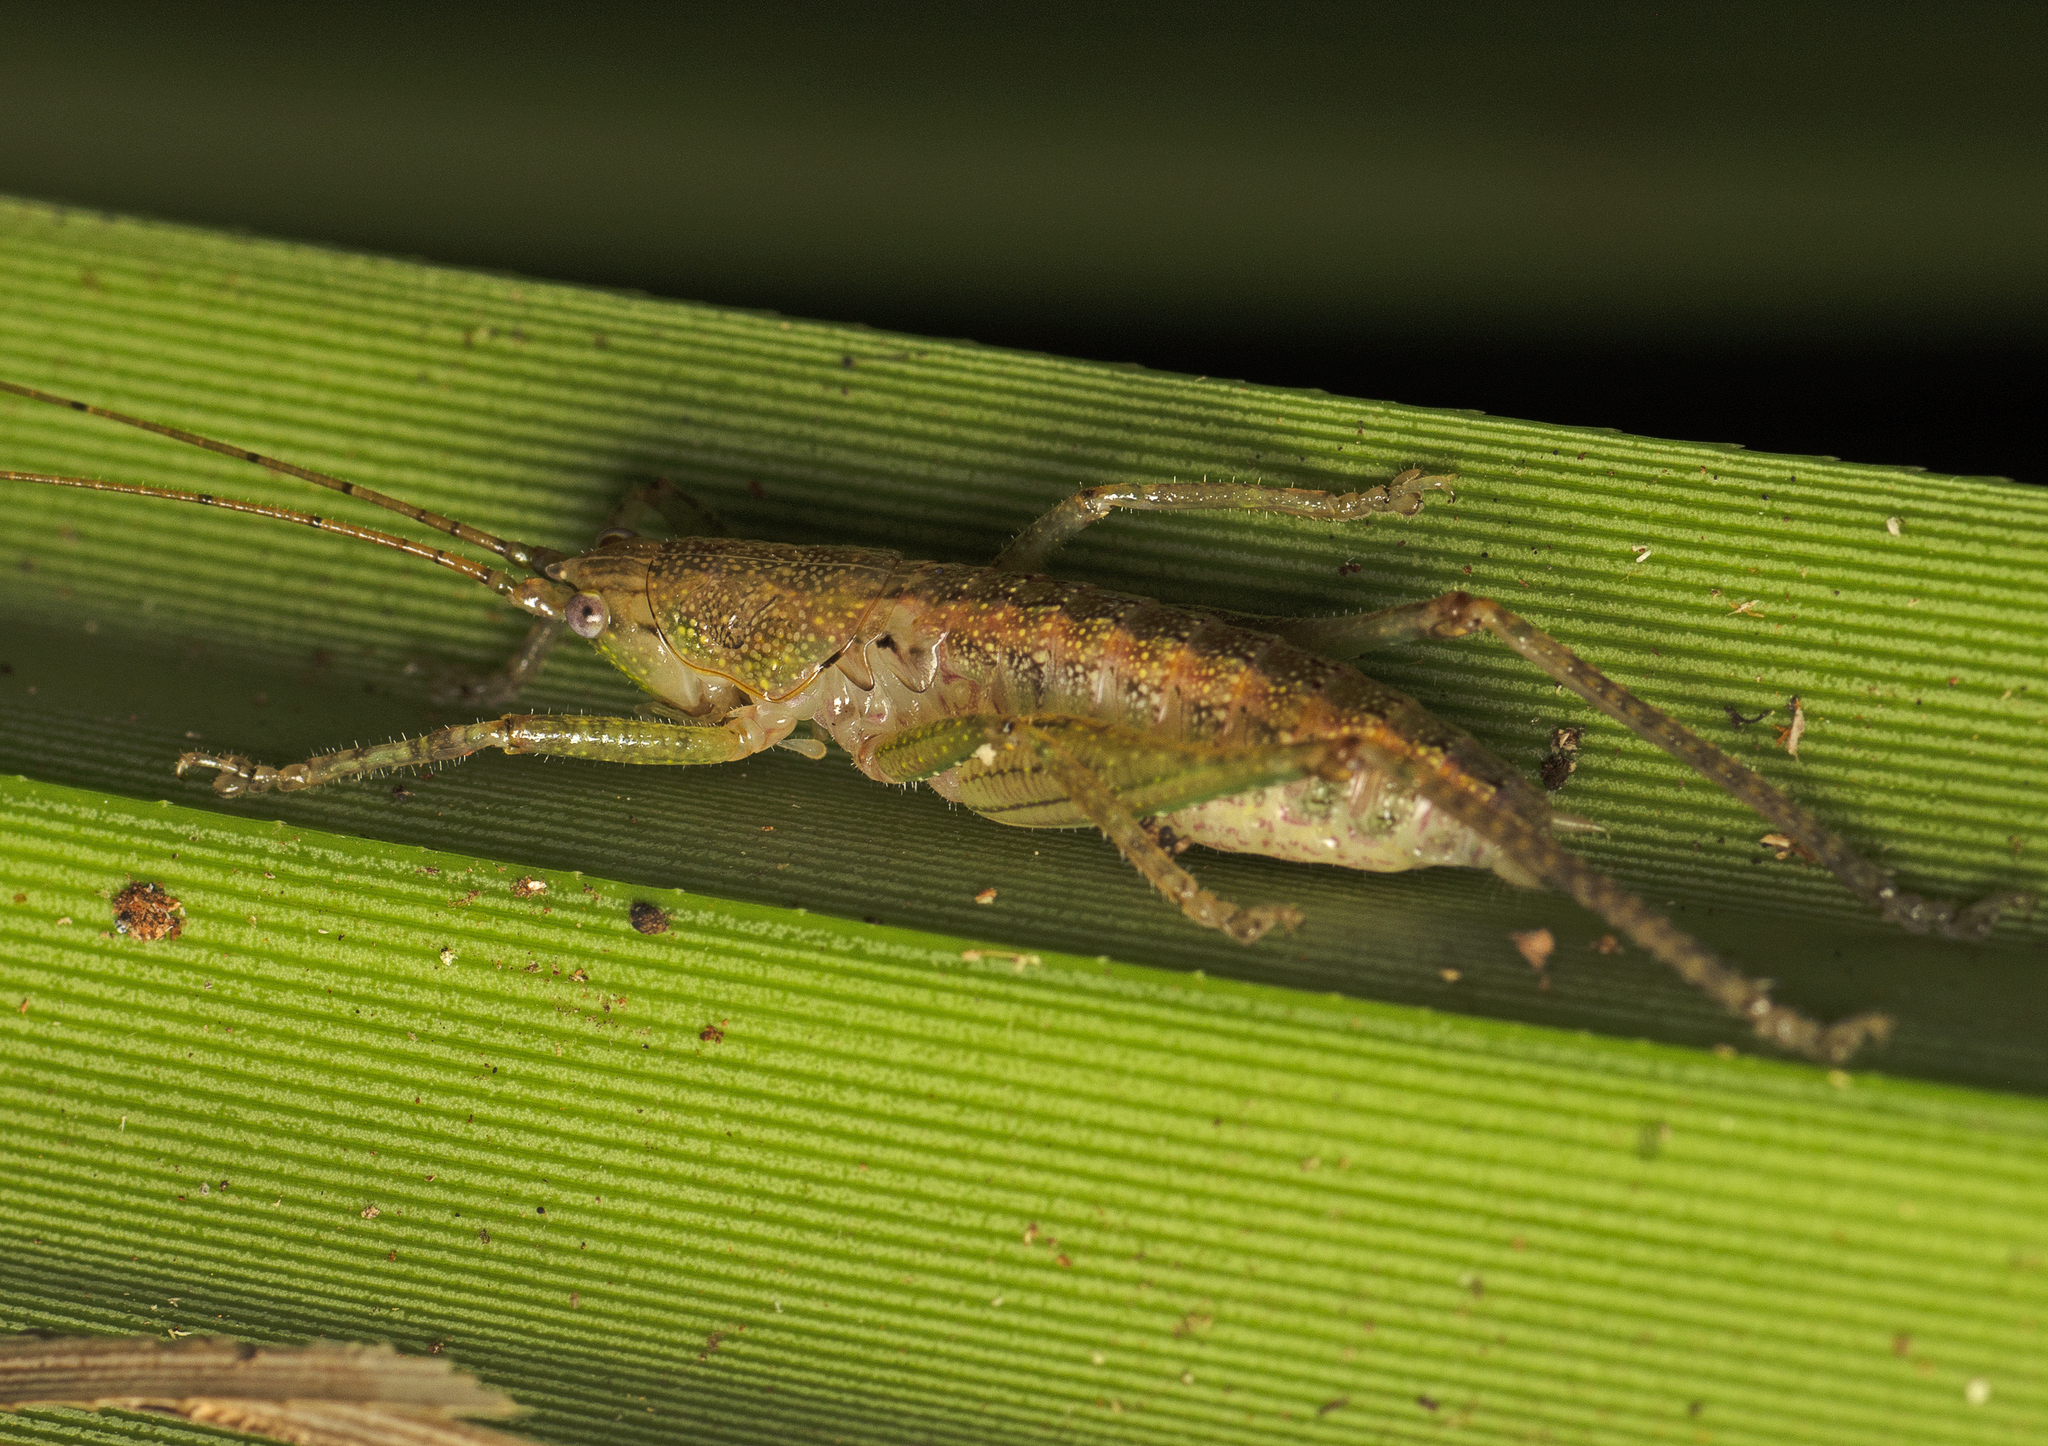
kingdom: Animalia
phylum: Arthropoda
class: Insecta
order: Orthoptera
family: Tettigoniidae
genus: Austrosalomona
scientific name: Austrosalomona destructor
